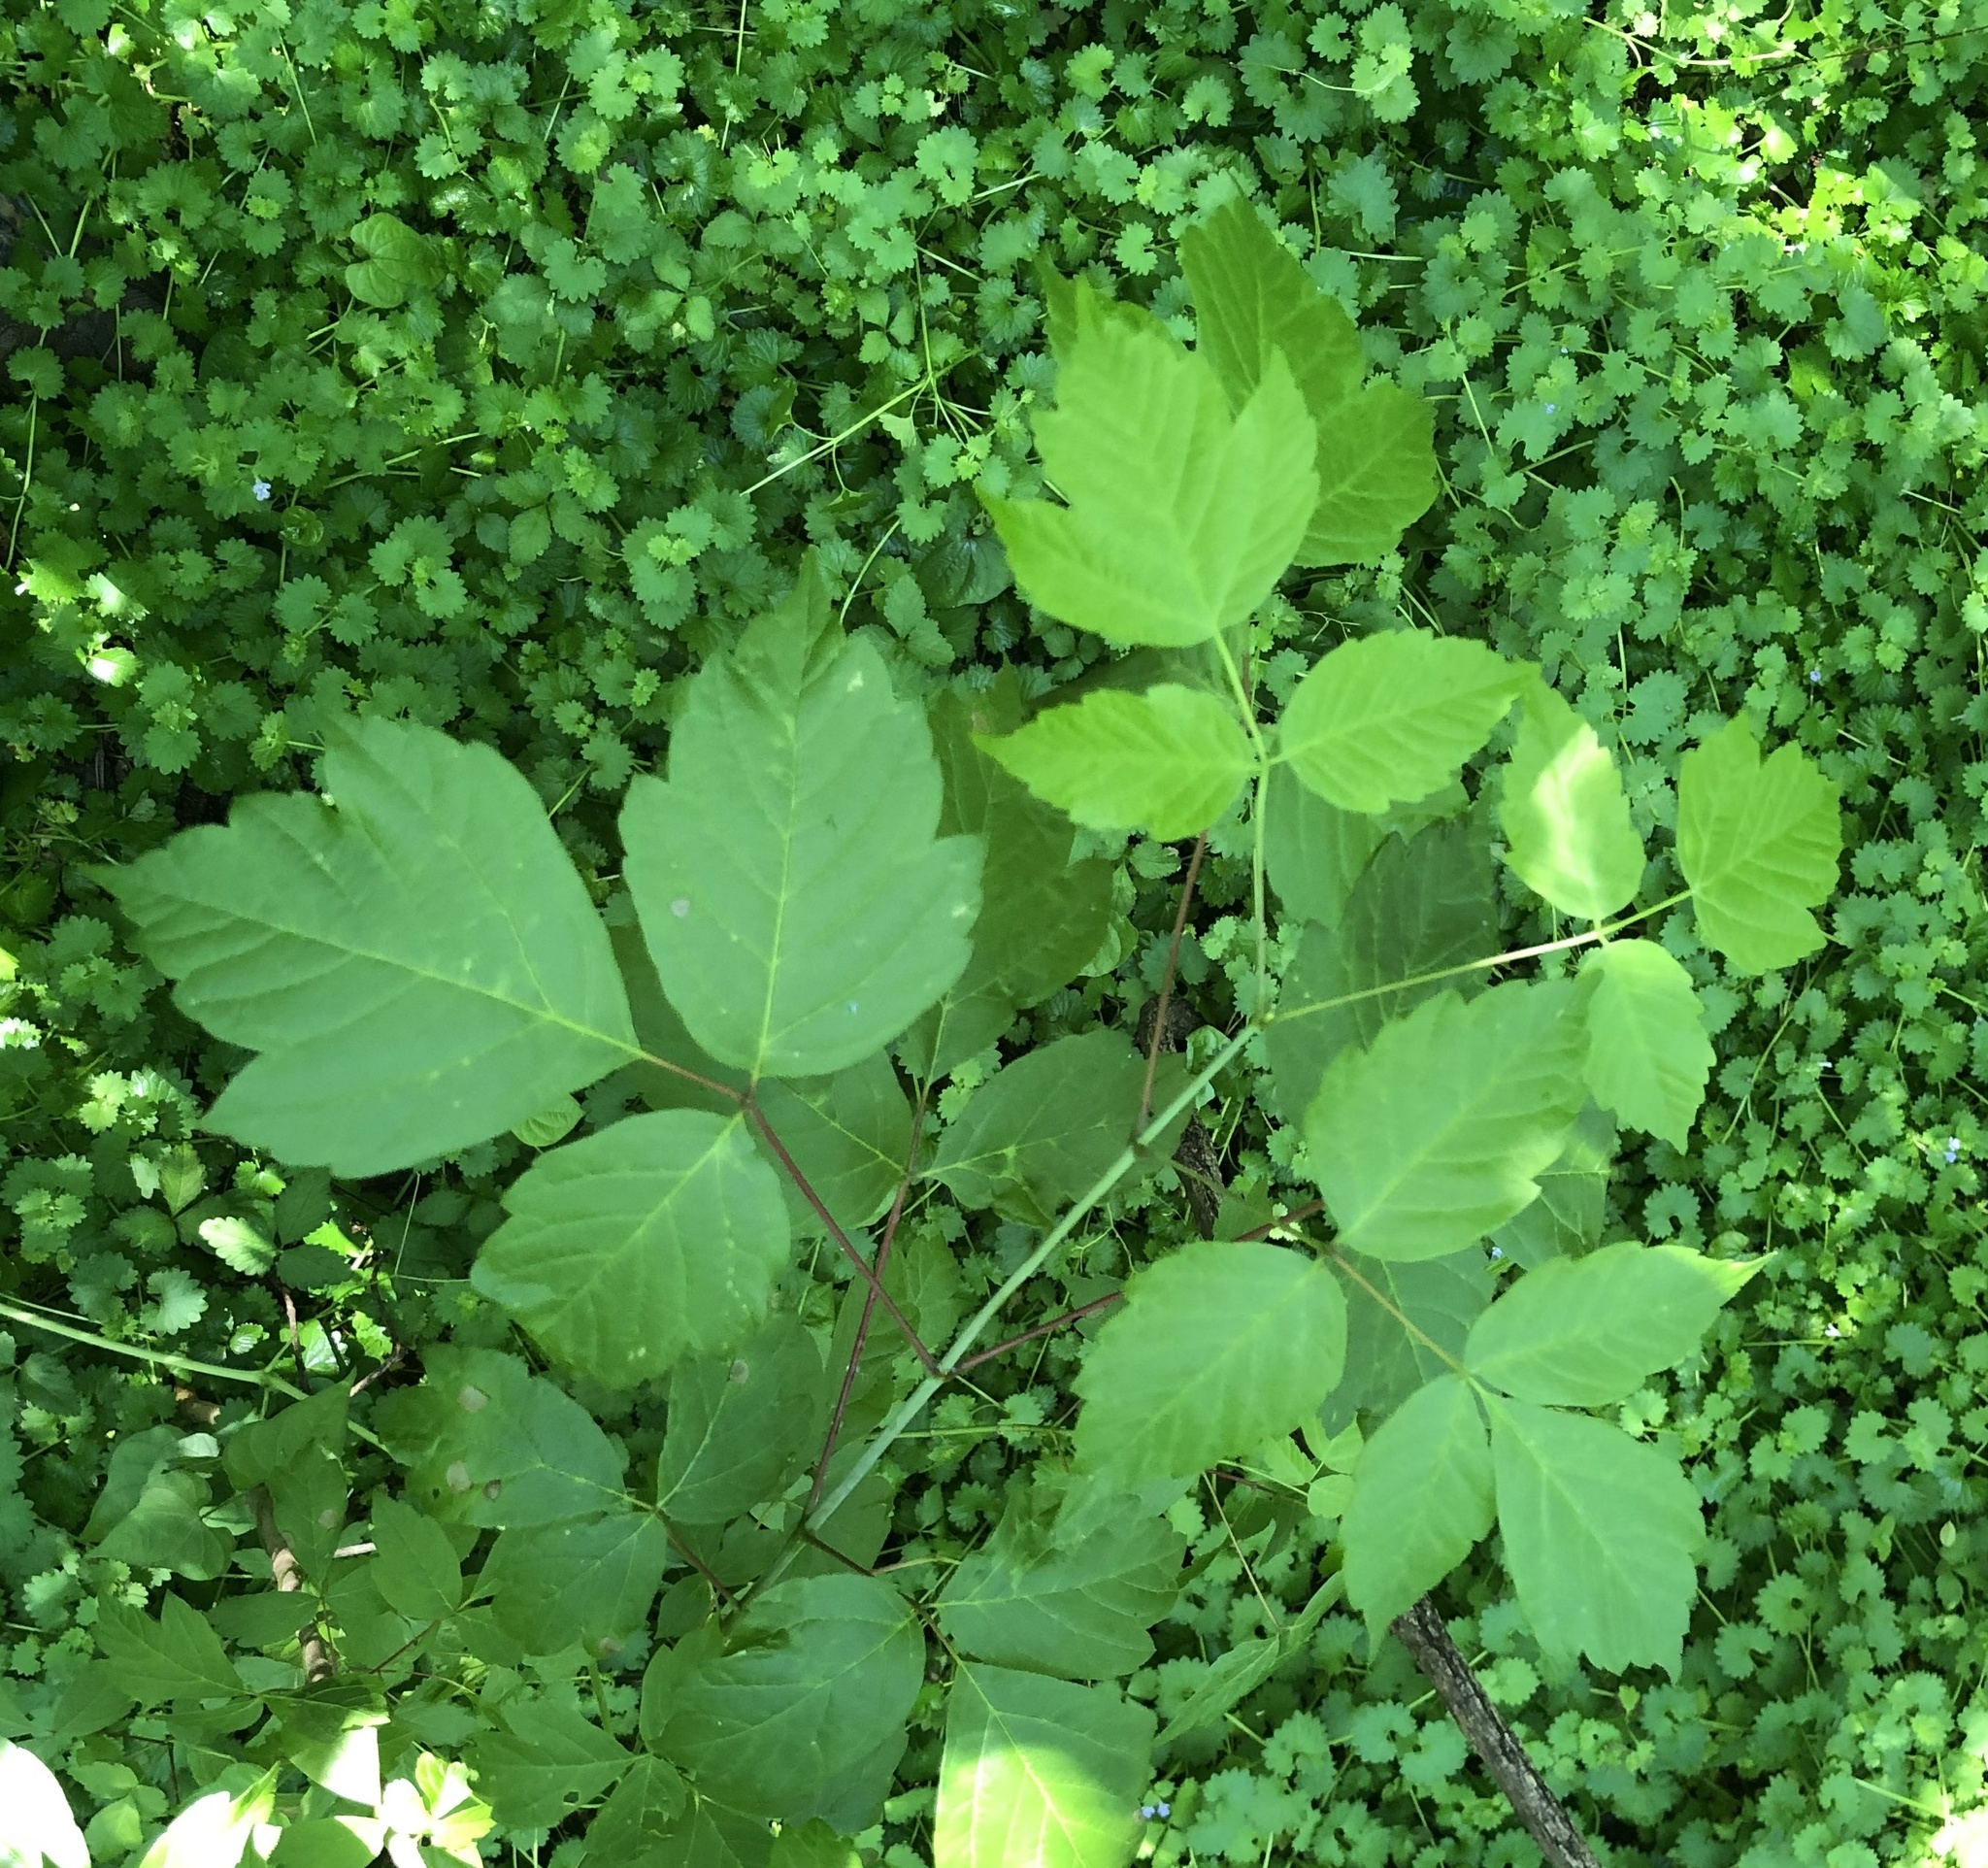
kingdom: Plantae
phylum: Tracheophyta
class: Magnoliopsida
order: Sapindales
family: Sapindaceae
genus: Acer
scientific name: Acer negundo
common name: Ashleaf maple
